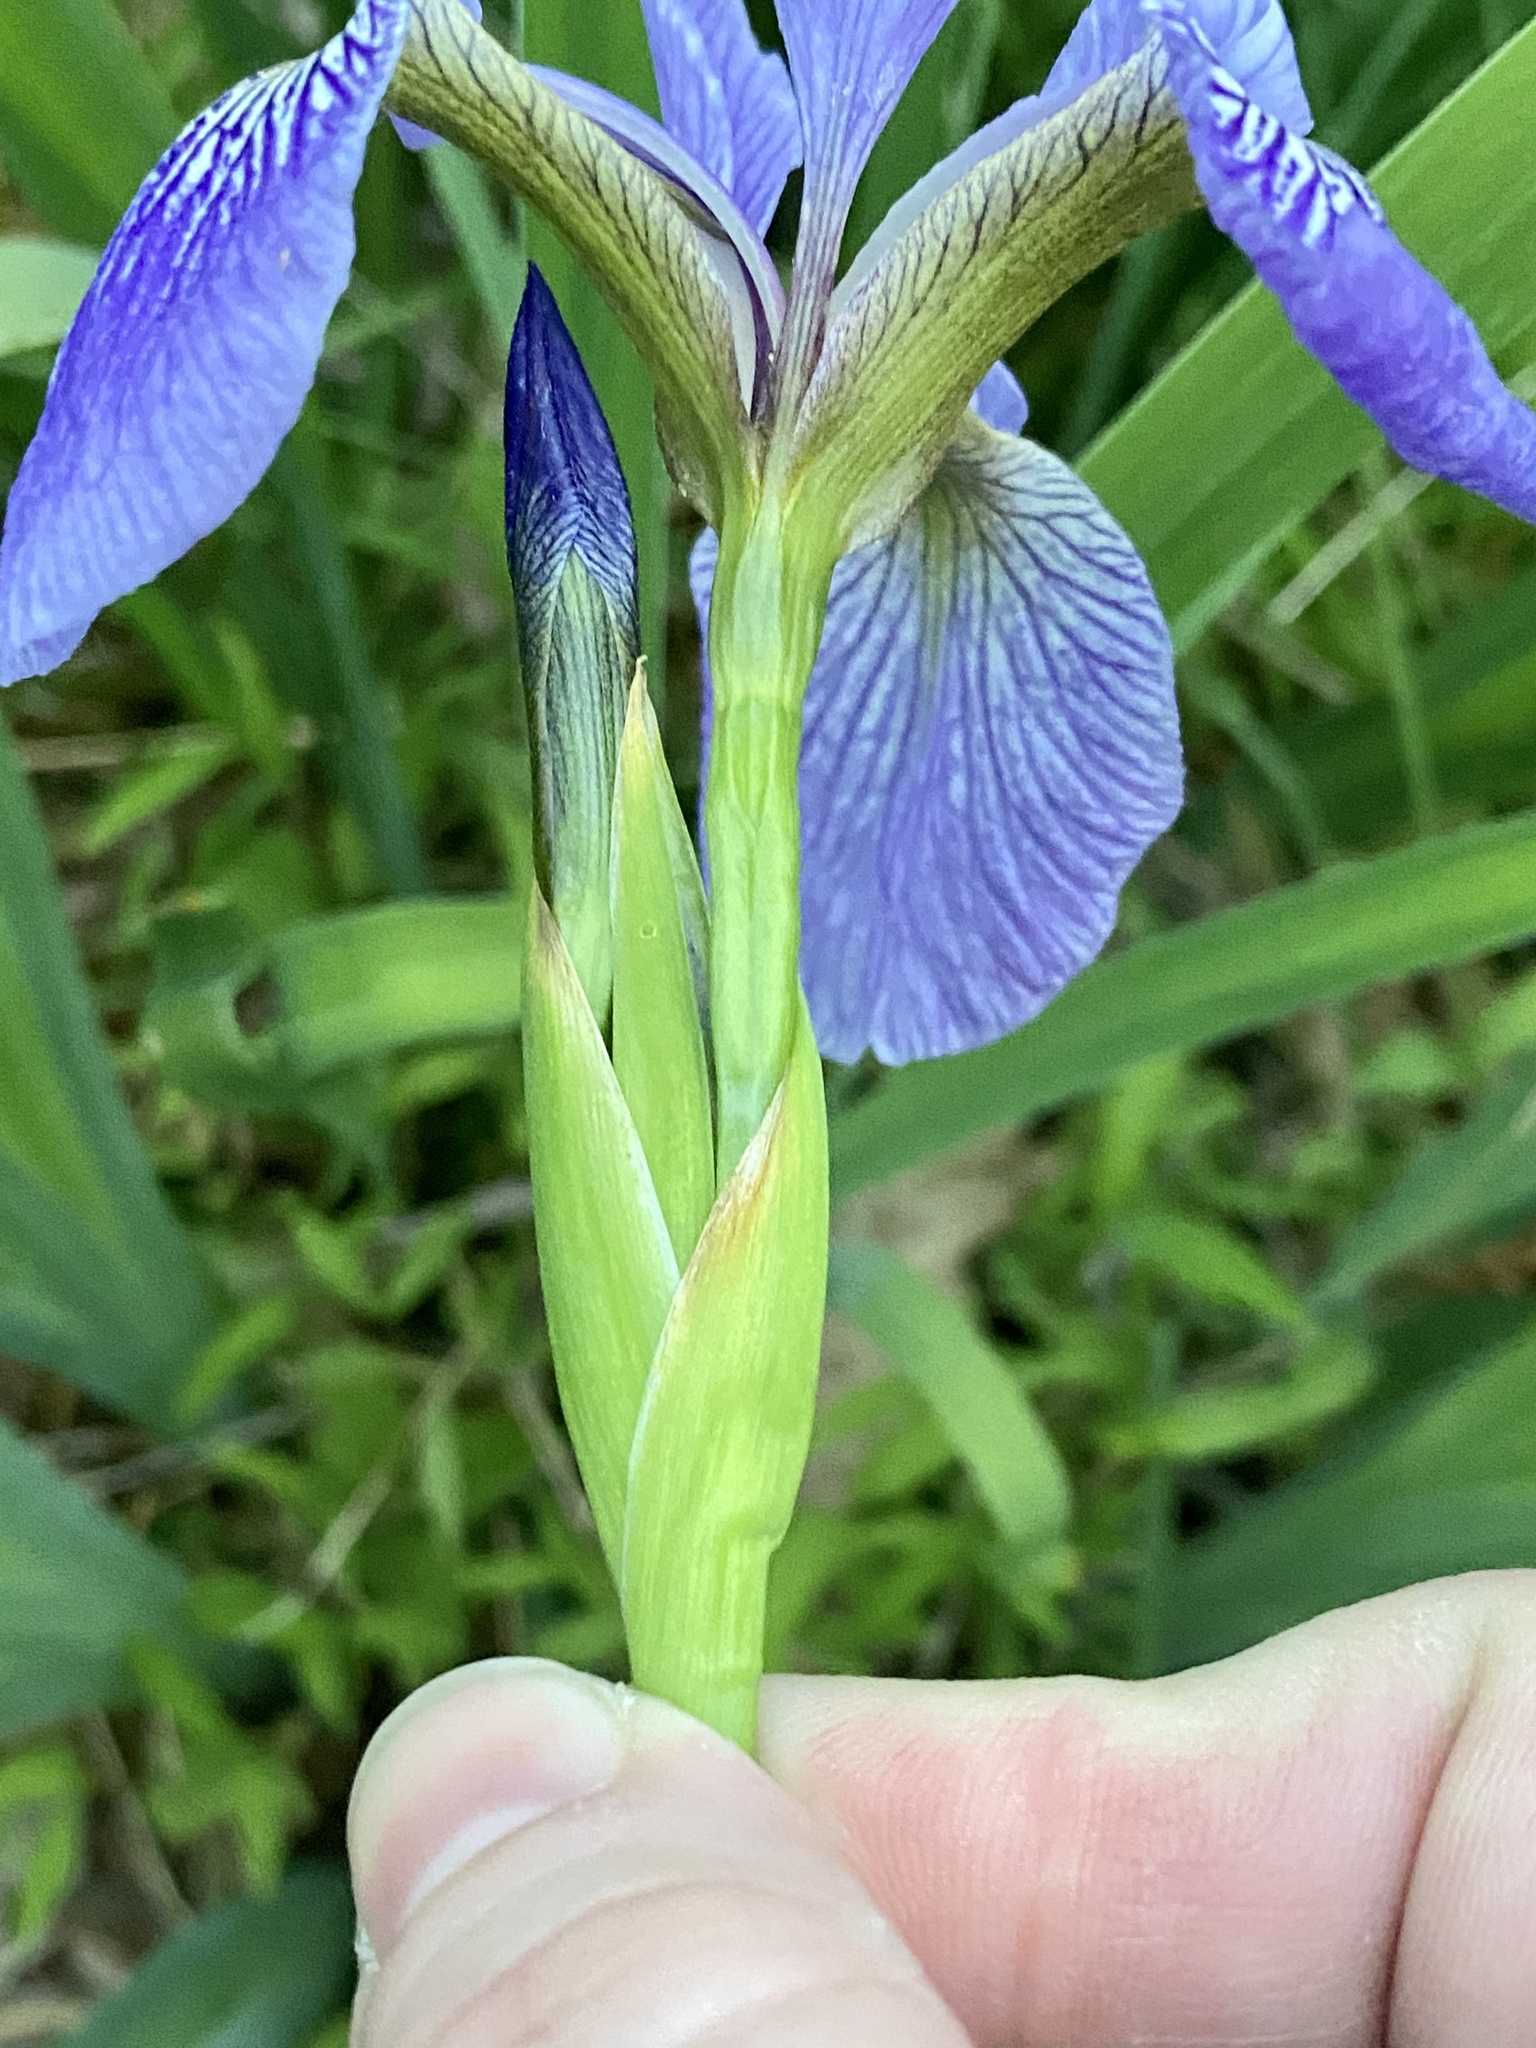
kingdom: Plantae
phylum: Tracheophyta
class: Liliopsida
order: Asparagales
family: Iridaceae
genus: Iris
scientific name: Iris versicolor
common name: Purple iris
